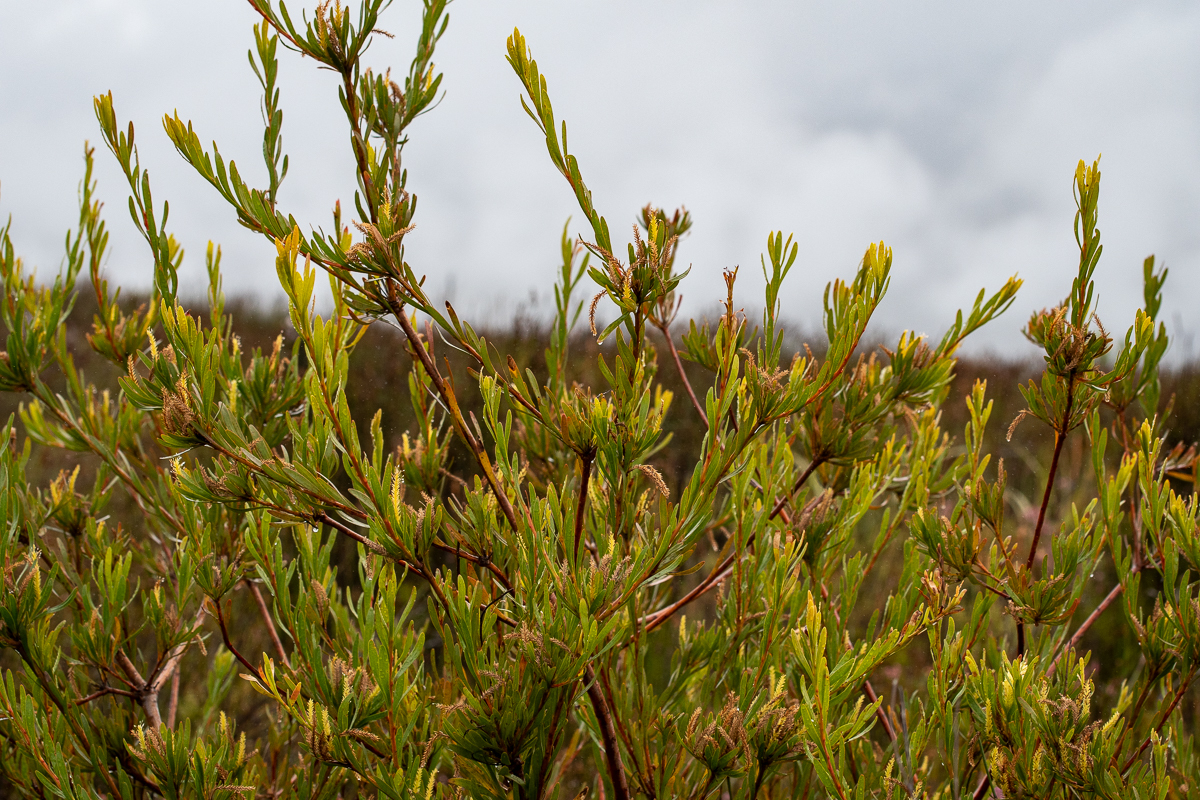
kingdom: Plantae
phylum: Tracheophyta
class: Magnoliopsida
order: Proteales
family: Proteaceae
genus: Aulax
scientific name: Aulax
